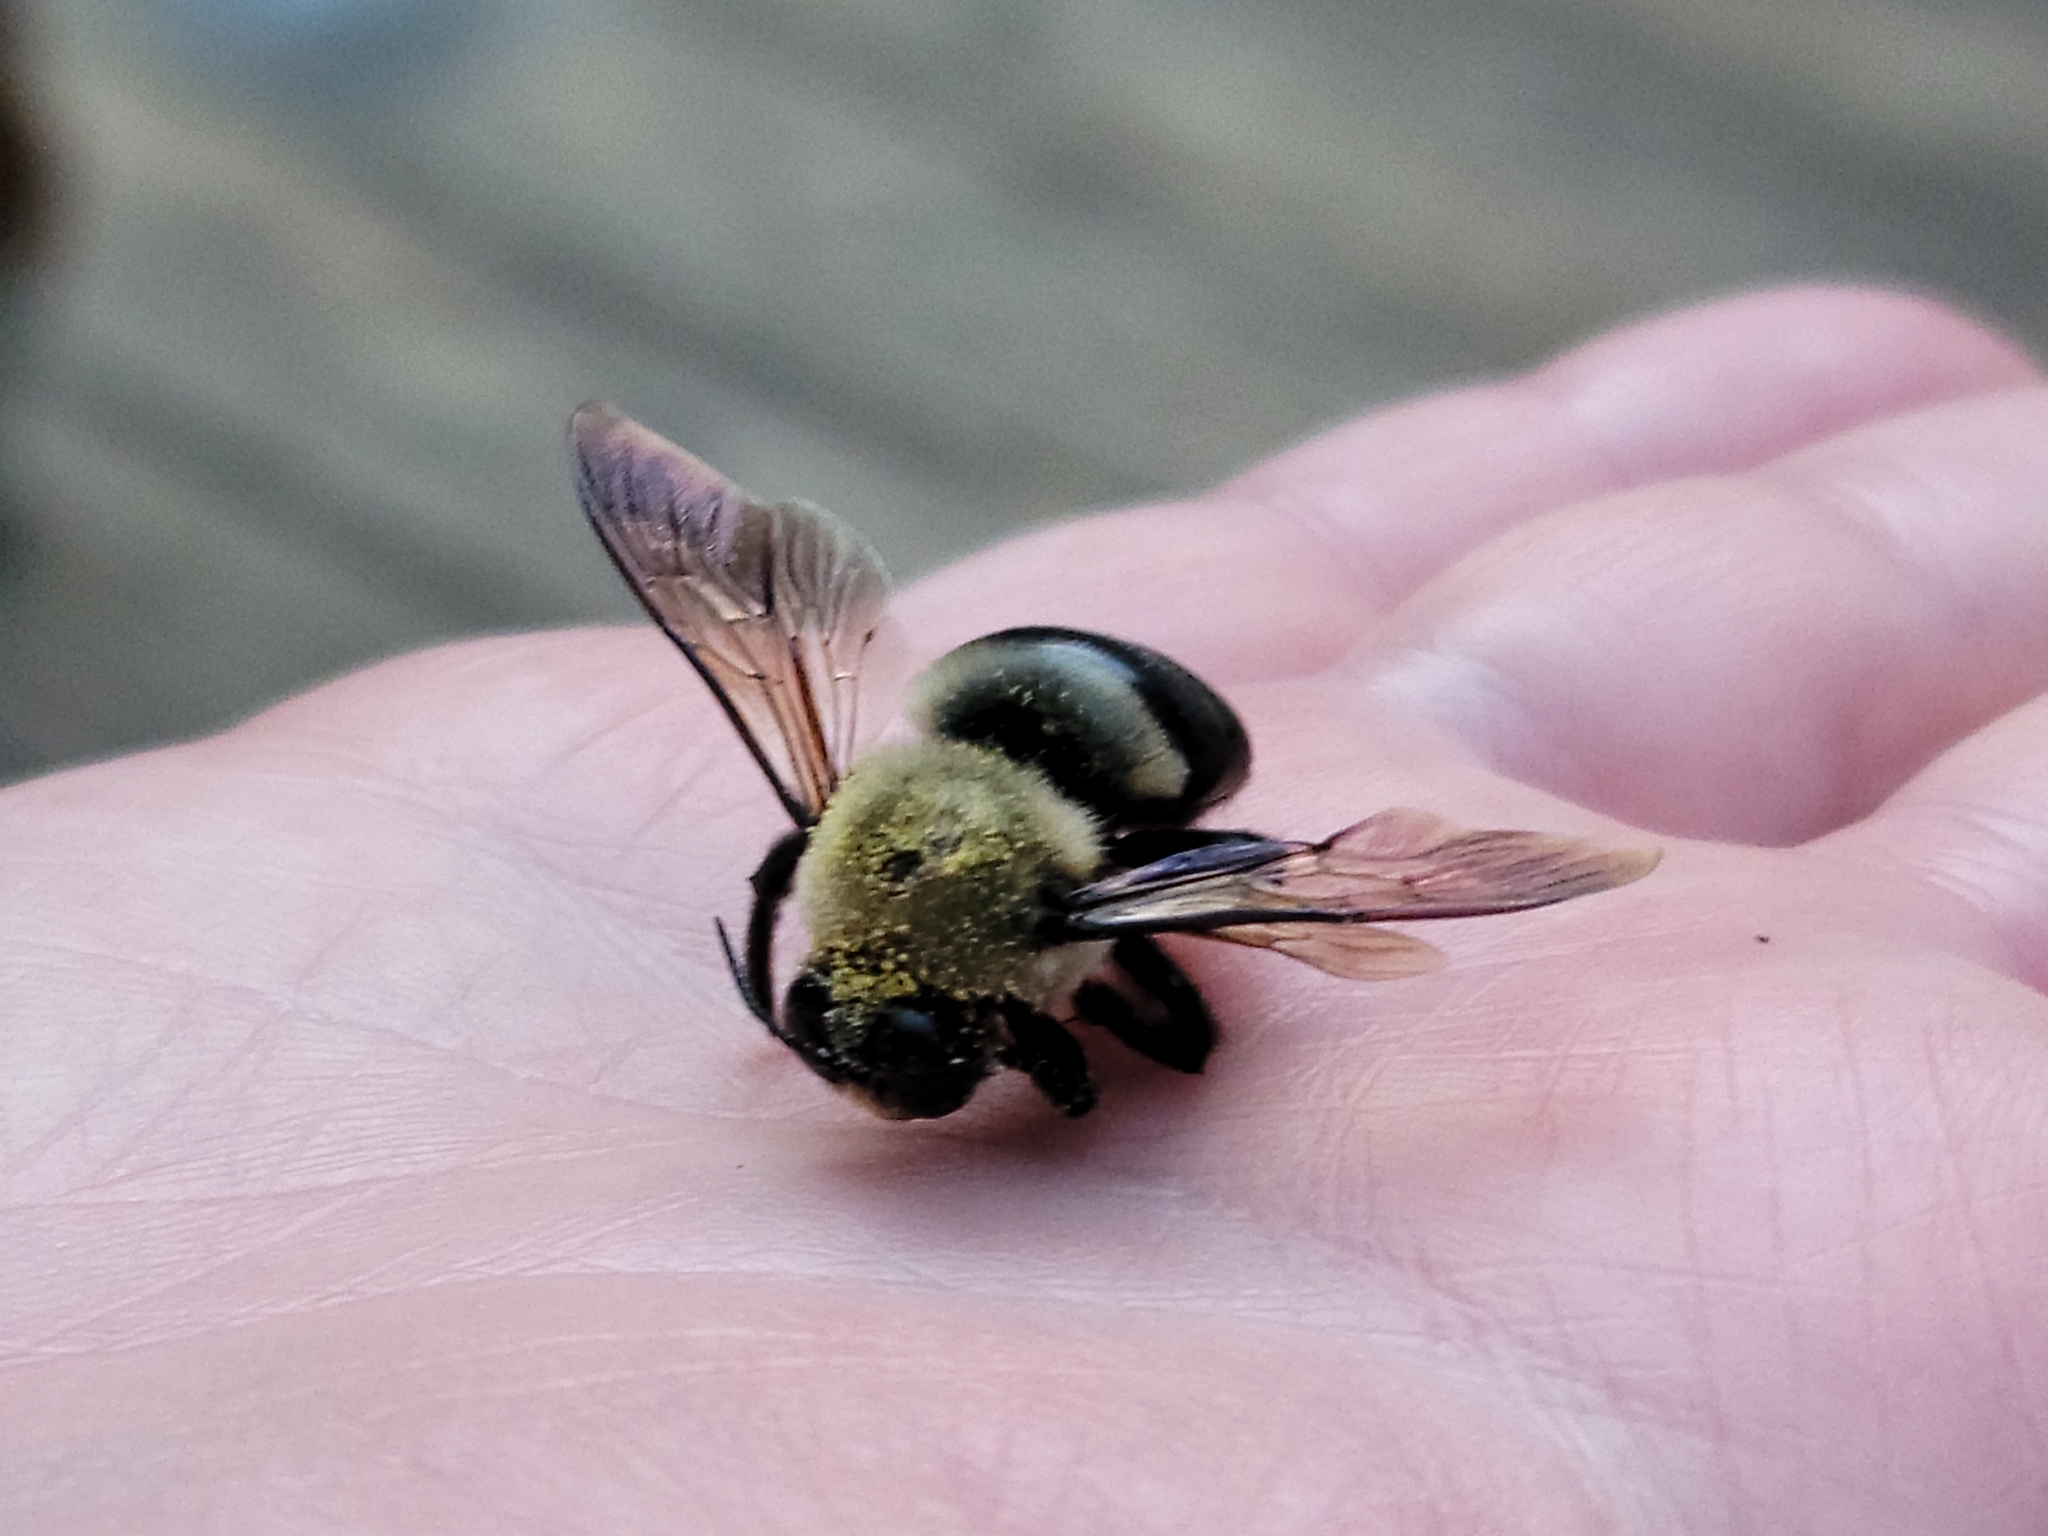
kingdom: Animalia
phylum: Arthropoda
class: Insecta
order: Hymenoptera
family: Apidae
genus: Xylocopa
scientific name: Xylocopa virginica
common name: Carpenter bee
